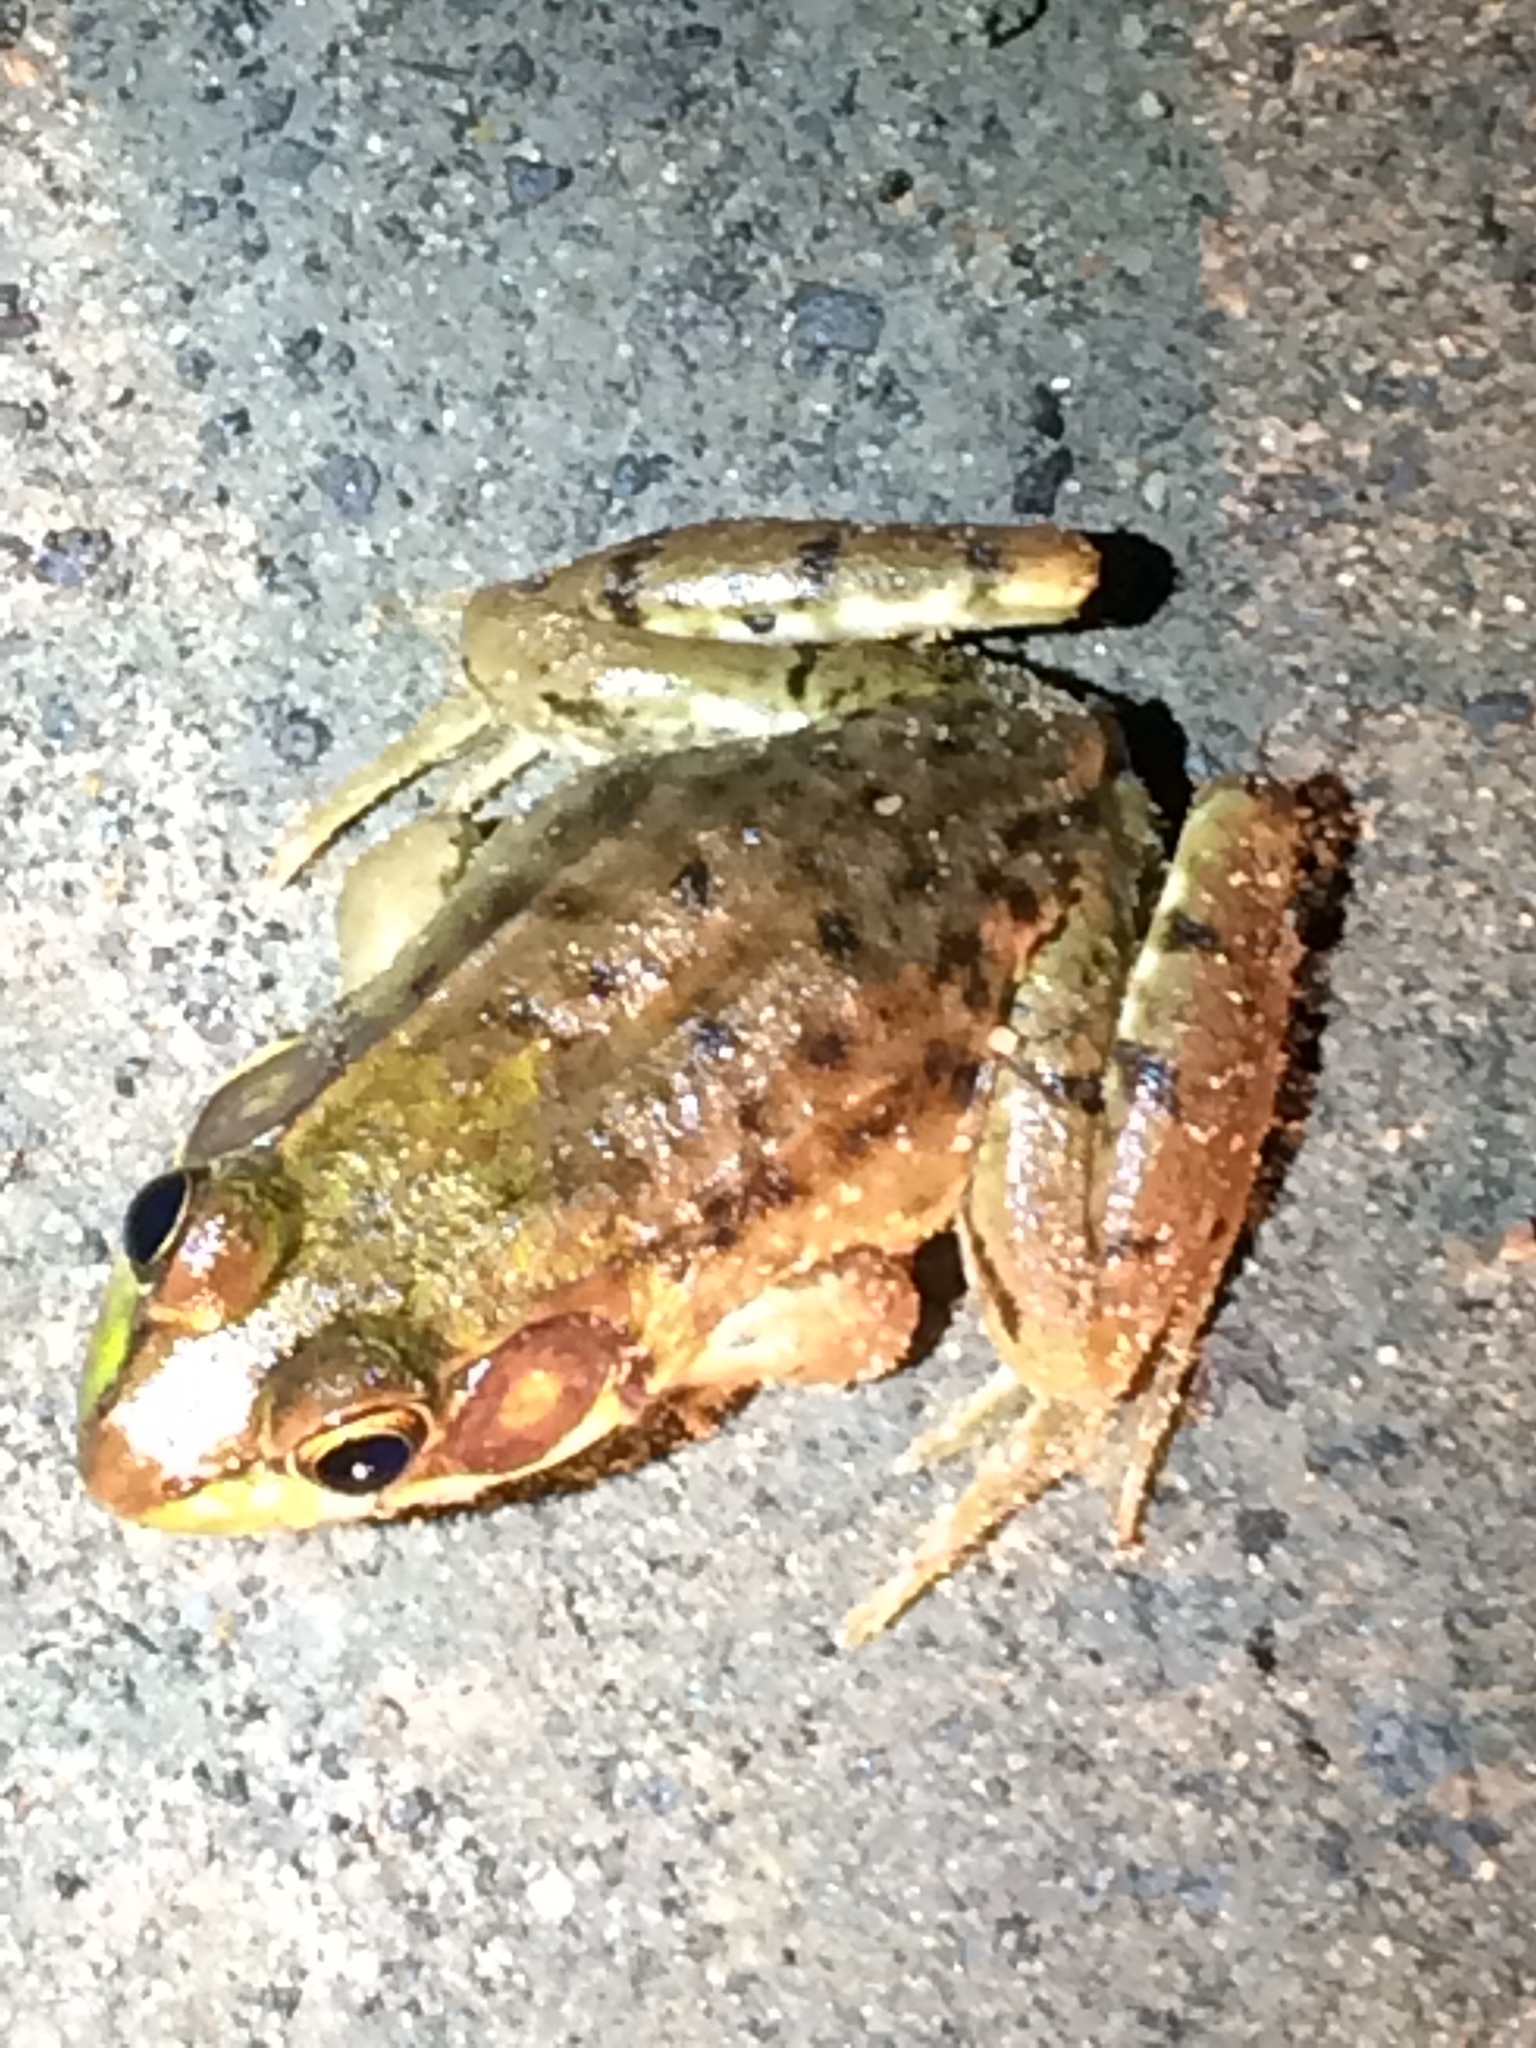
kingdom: Animalia
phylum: Chordata
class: Amphibia
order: Anura
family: Ranidae
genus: Lithobates
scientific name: Lithobates clamitans
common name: Green frog
